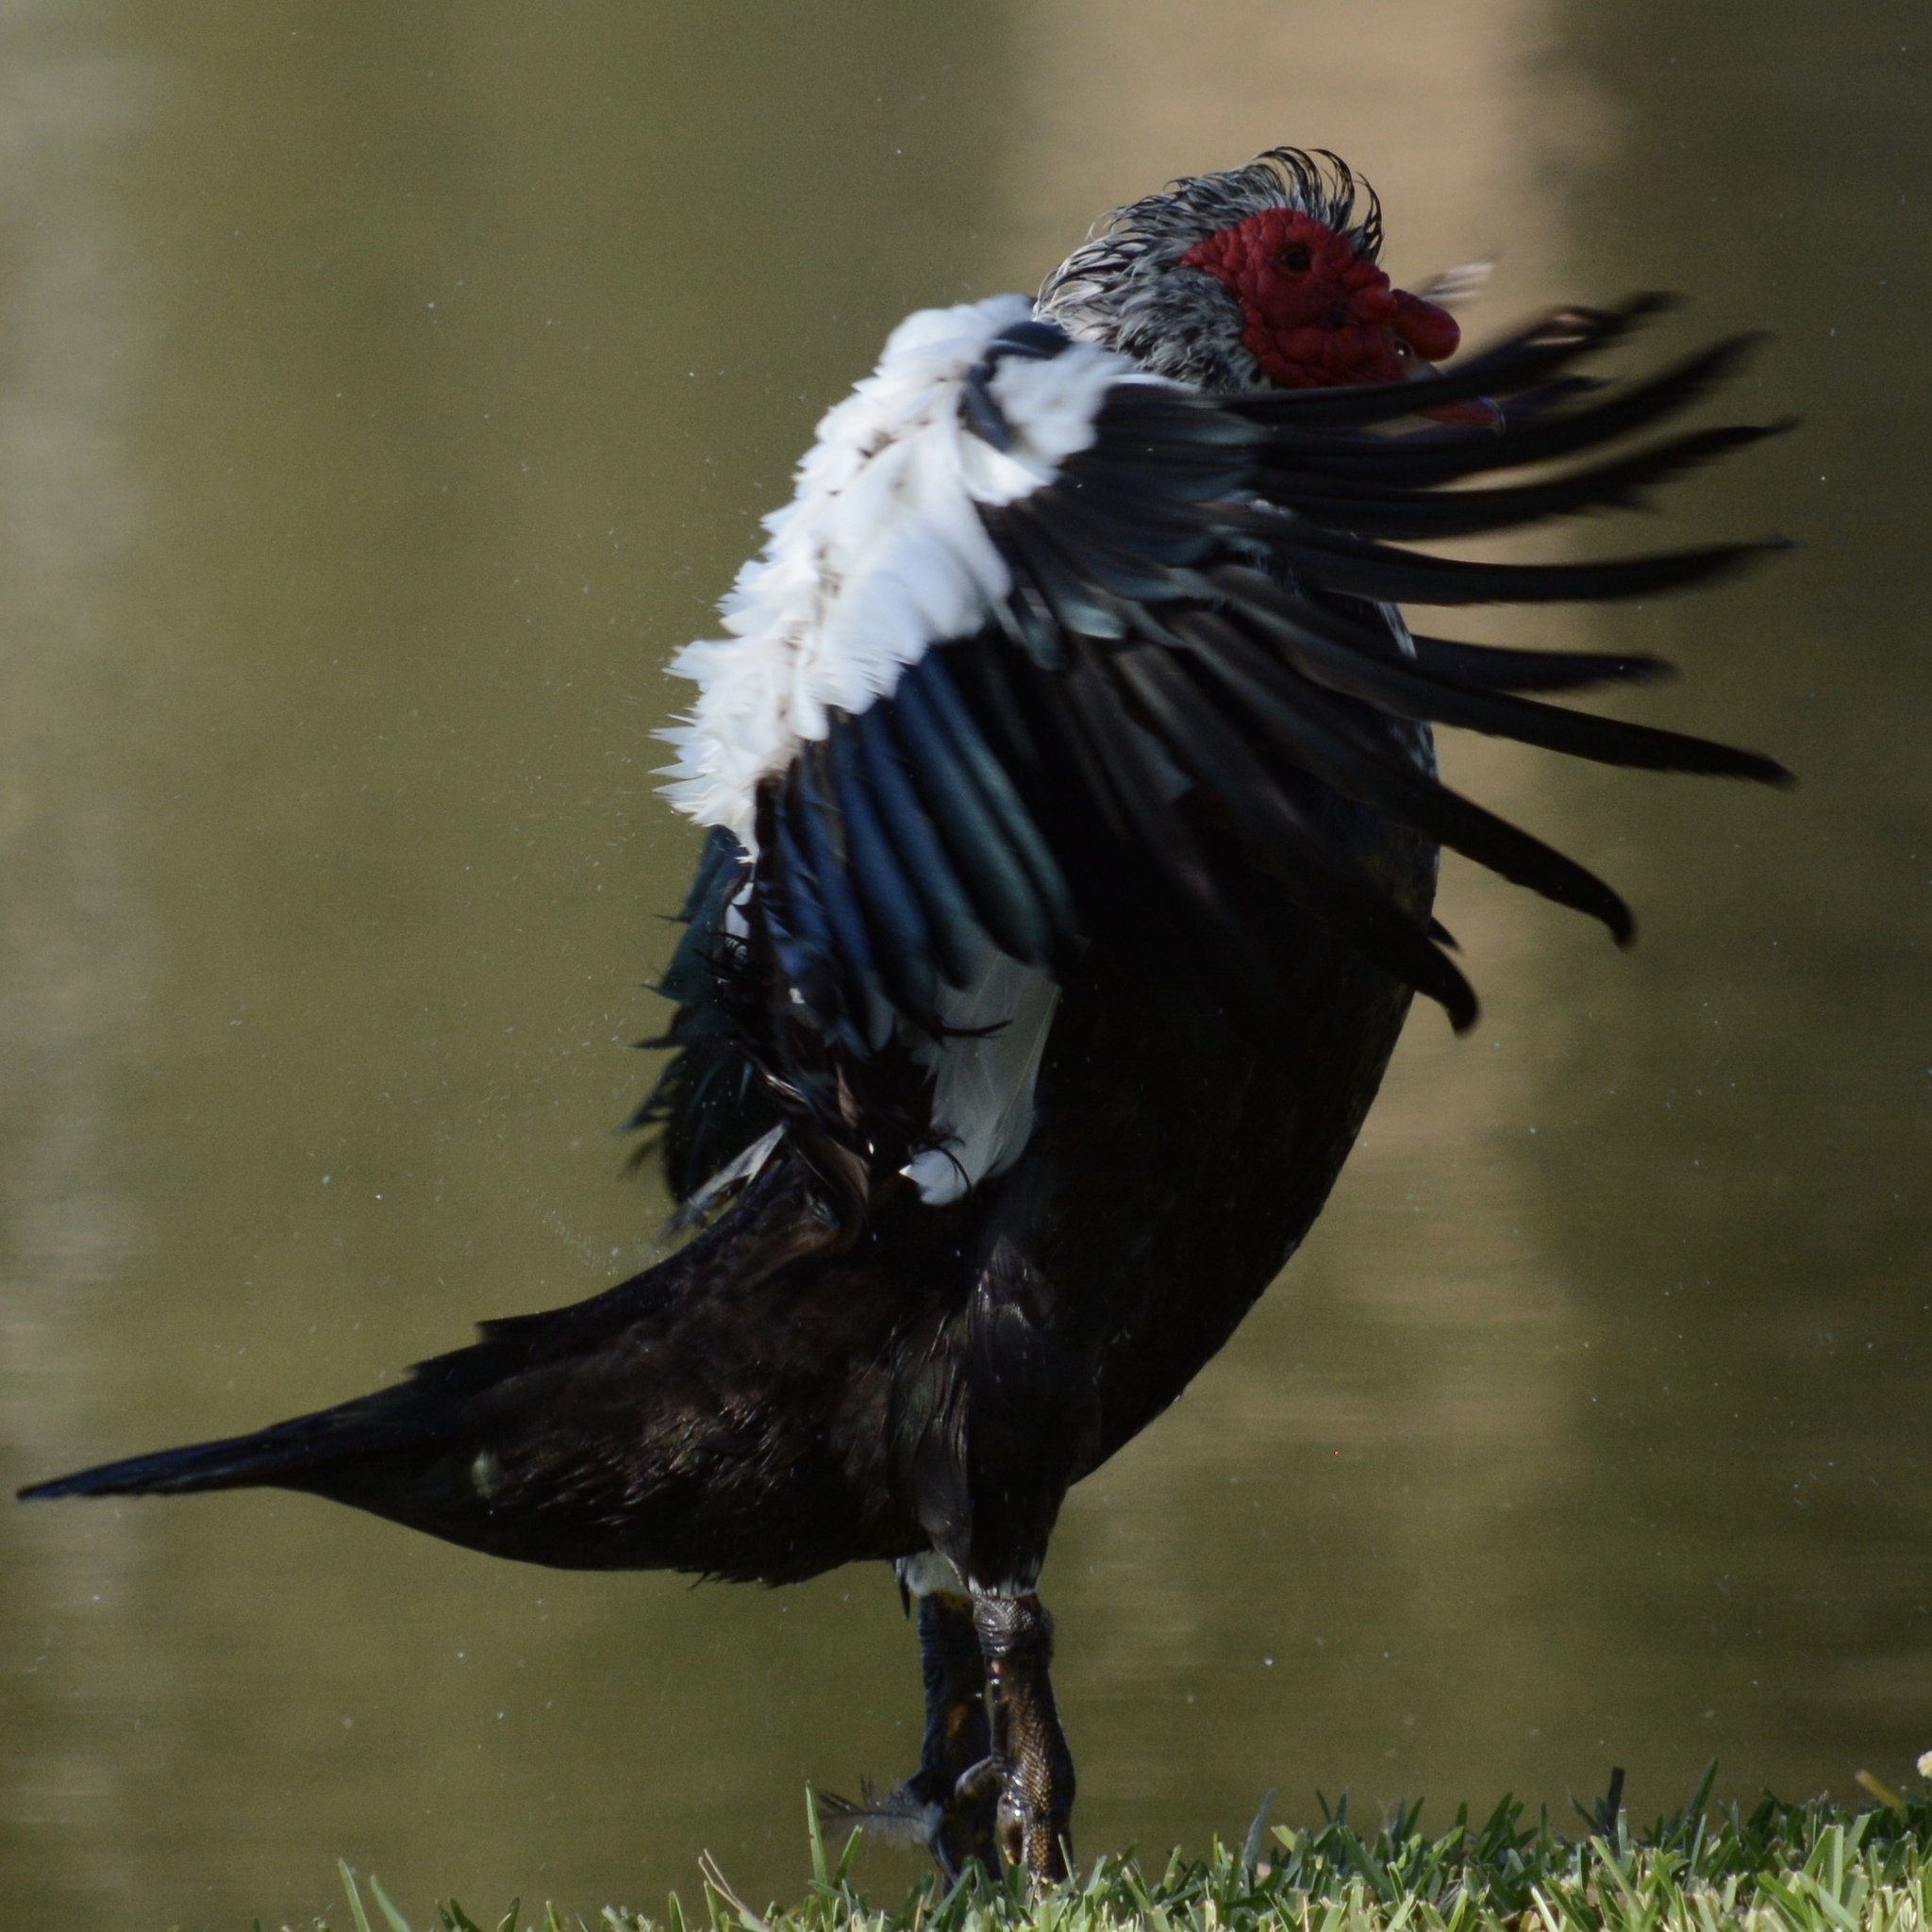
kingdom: Animalia
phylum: Chordata
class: Aves
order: Anseriformes
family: Anatidae
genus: Cairina
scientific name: Cairina moschata
